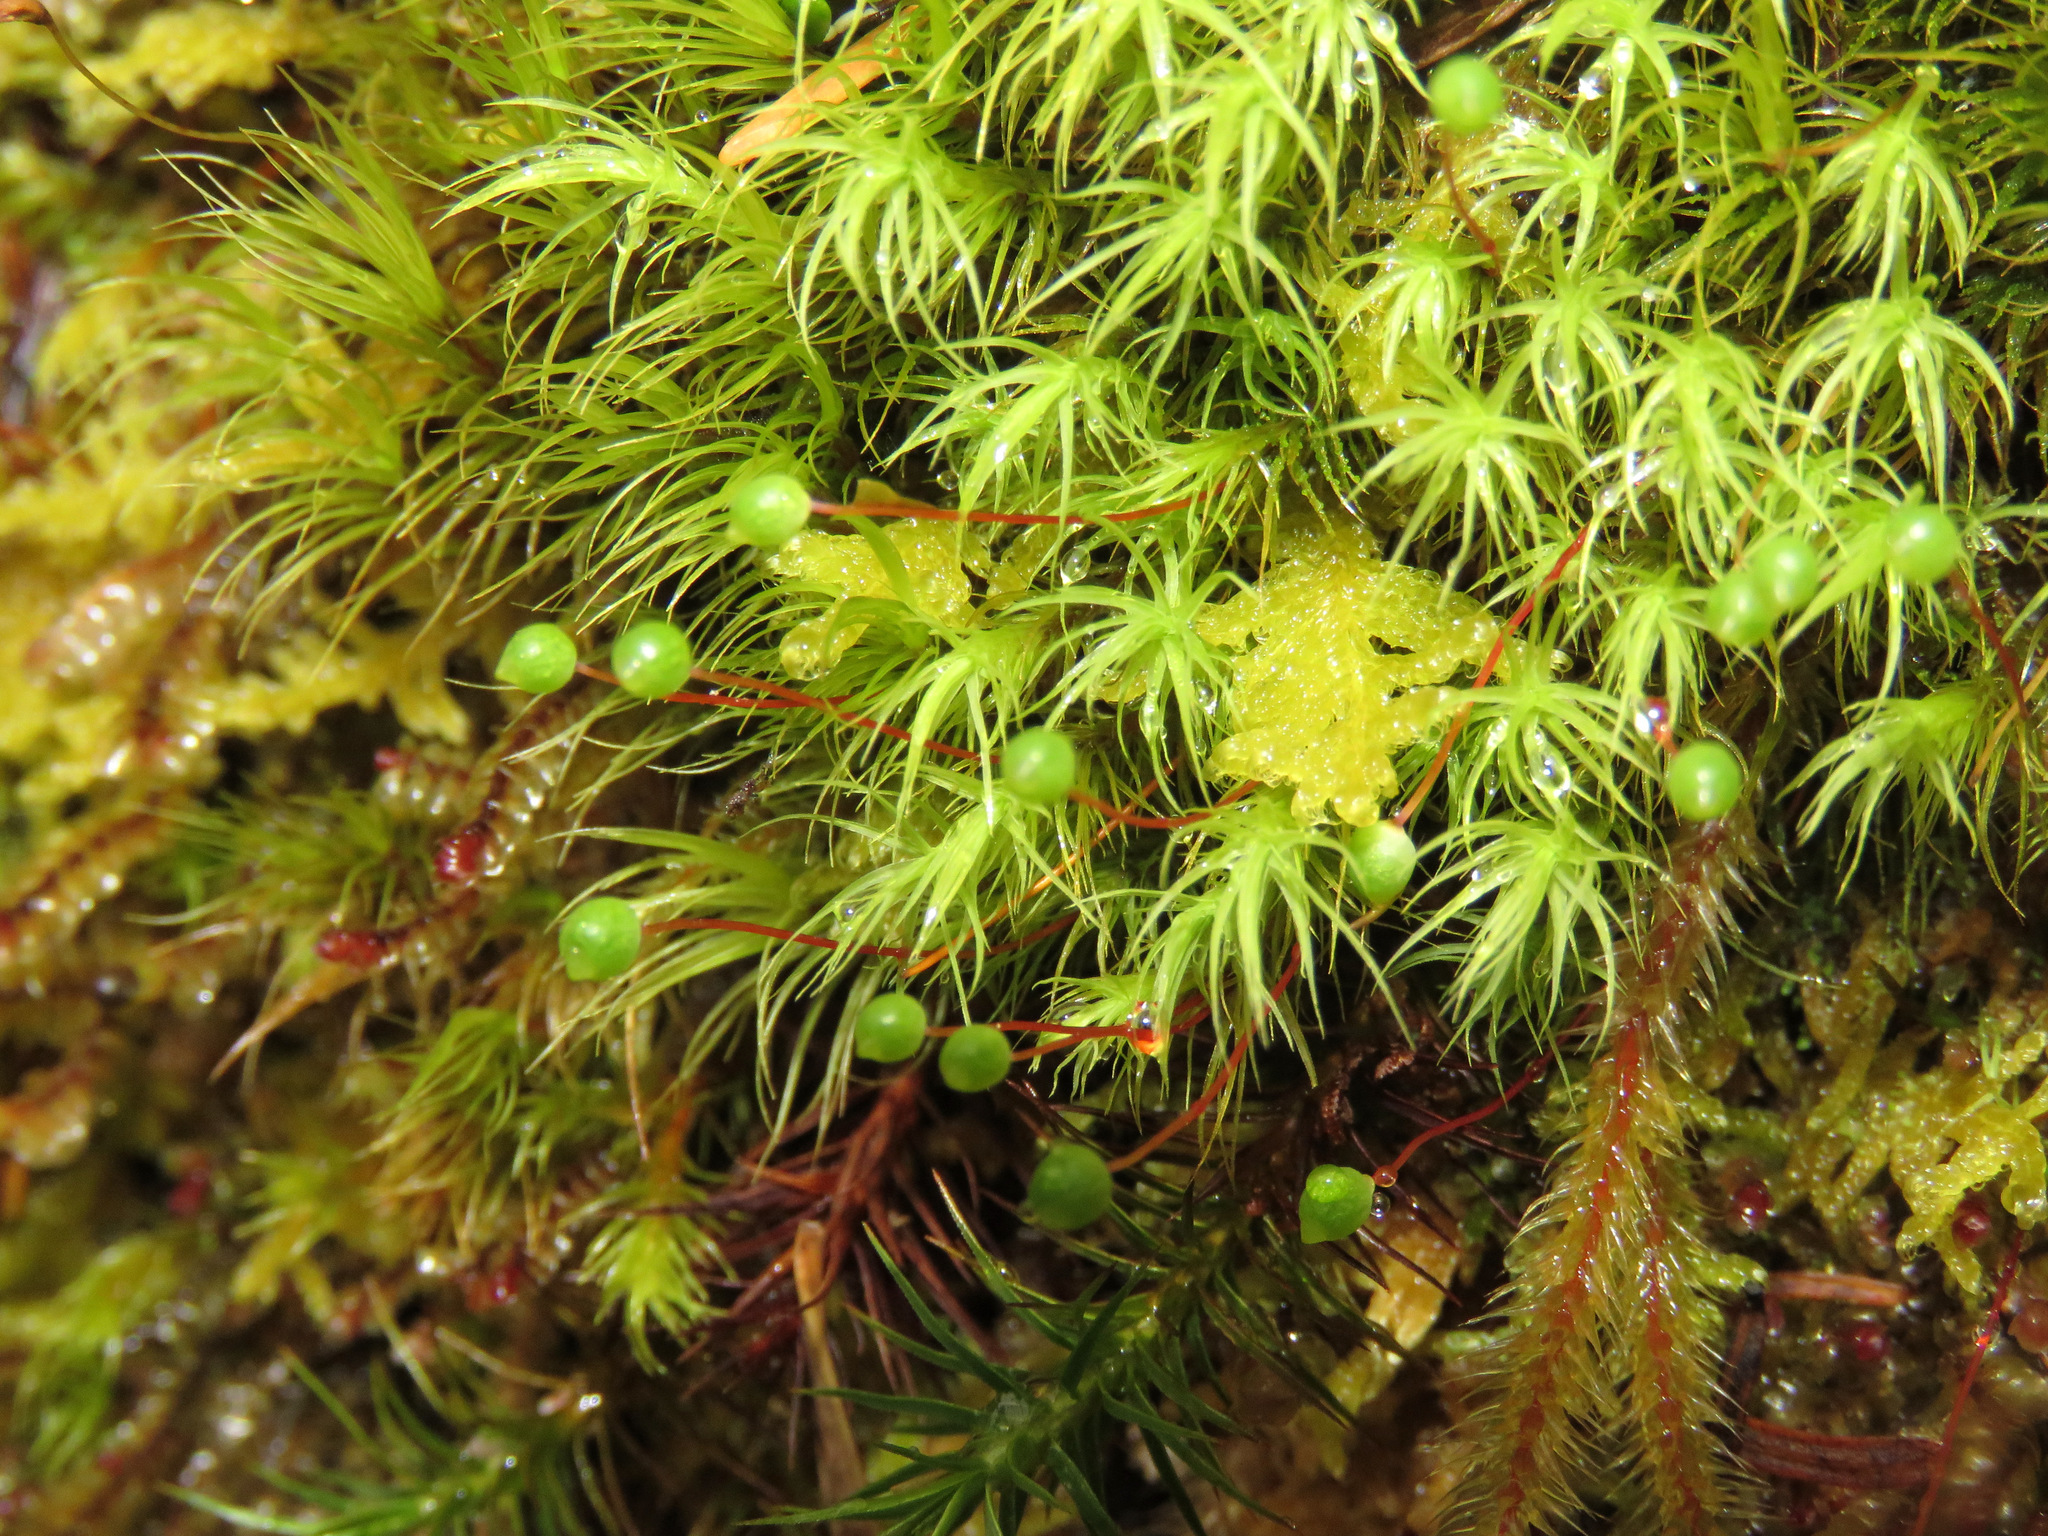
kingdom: Plantae
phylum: Bryophyta
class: Bryopsida
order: Bartramiales
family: Bartramiaceae
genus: Bartramia
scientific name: Bartramia ithyphylla
